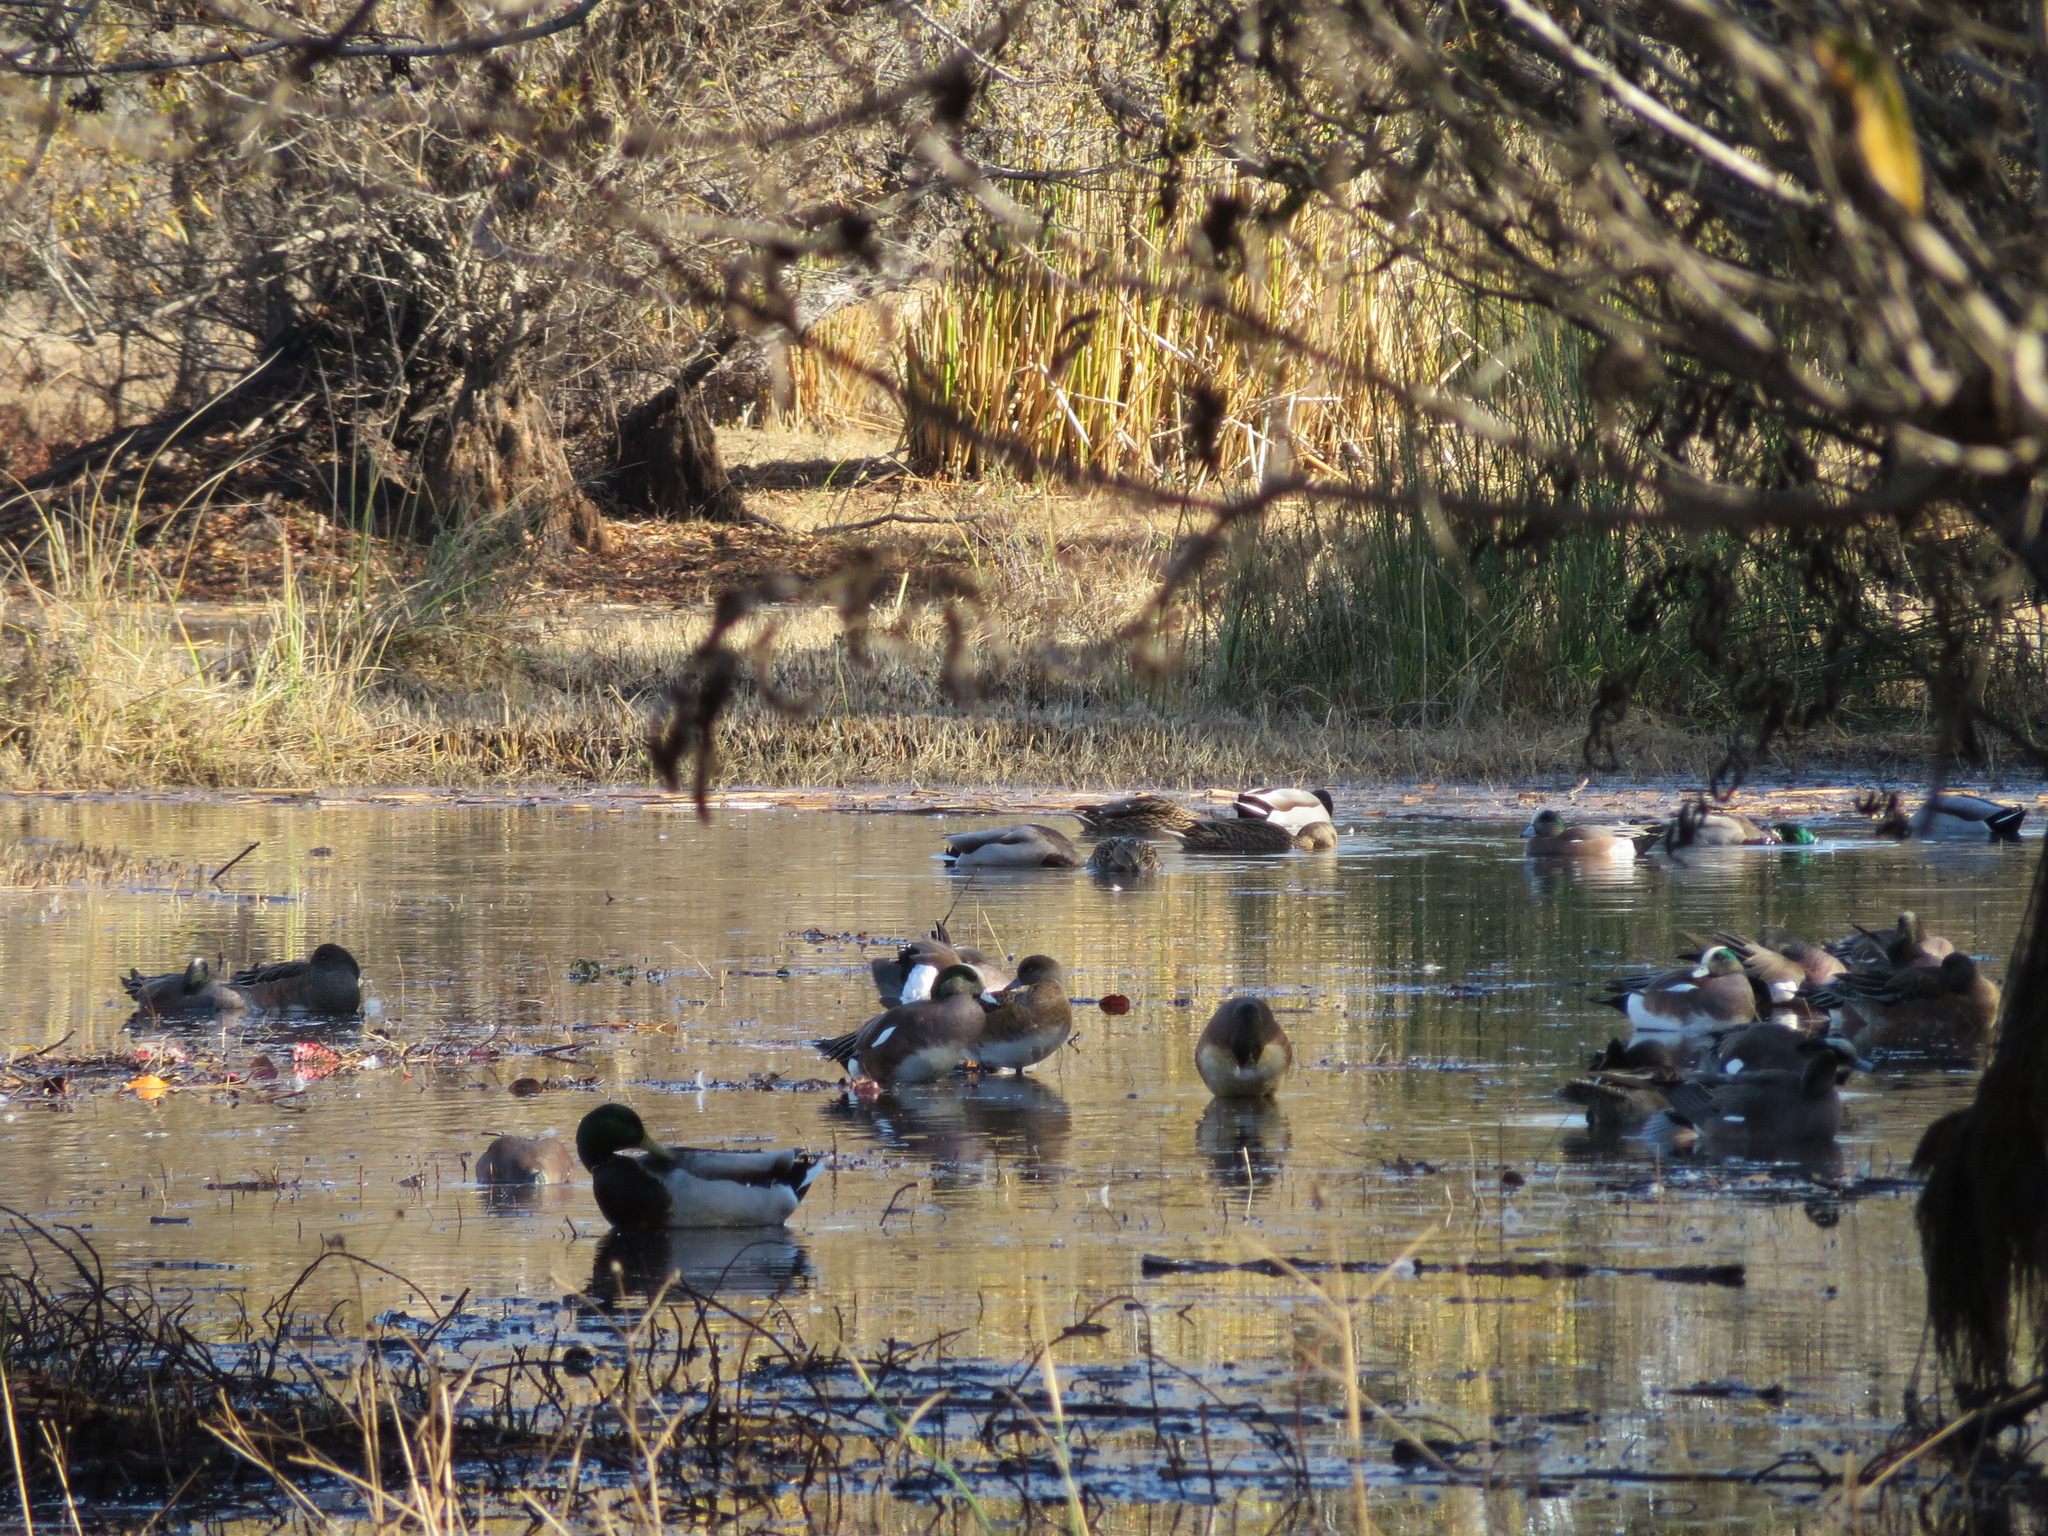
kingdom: Animalia
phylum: Chordata
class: Aves
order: Anseriformes
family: Anatidae
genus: Mareca
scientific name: Mareca americana
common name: American wigeon
